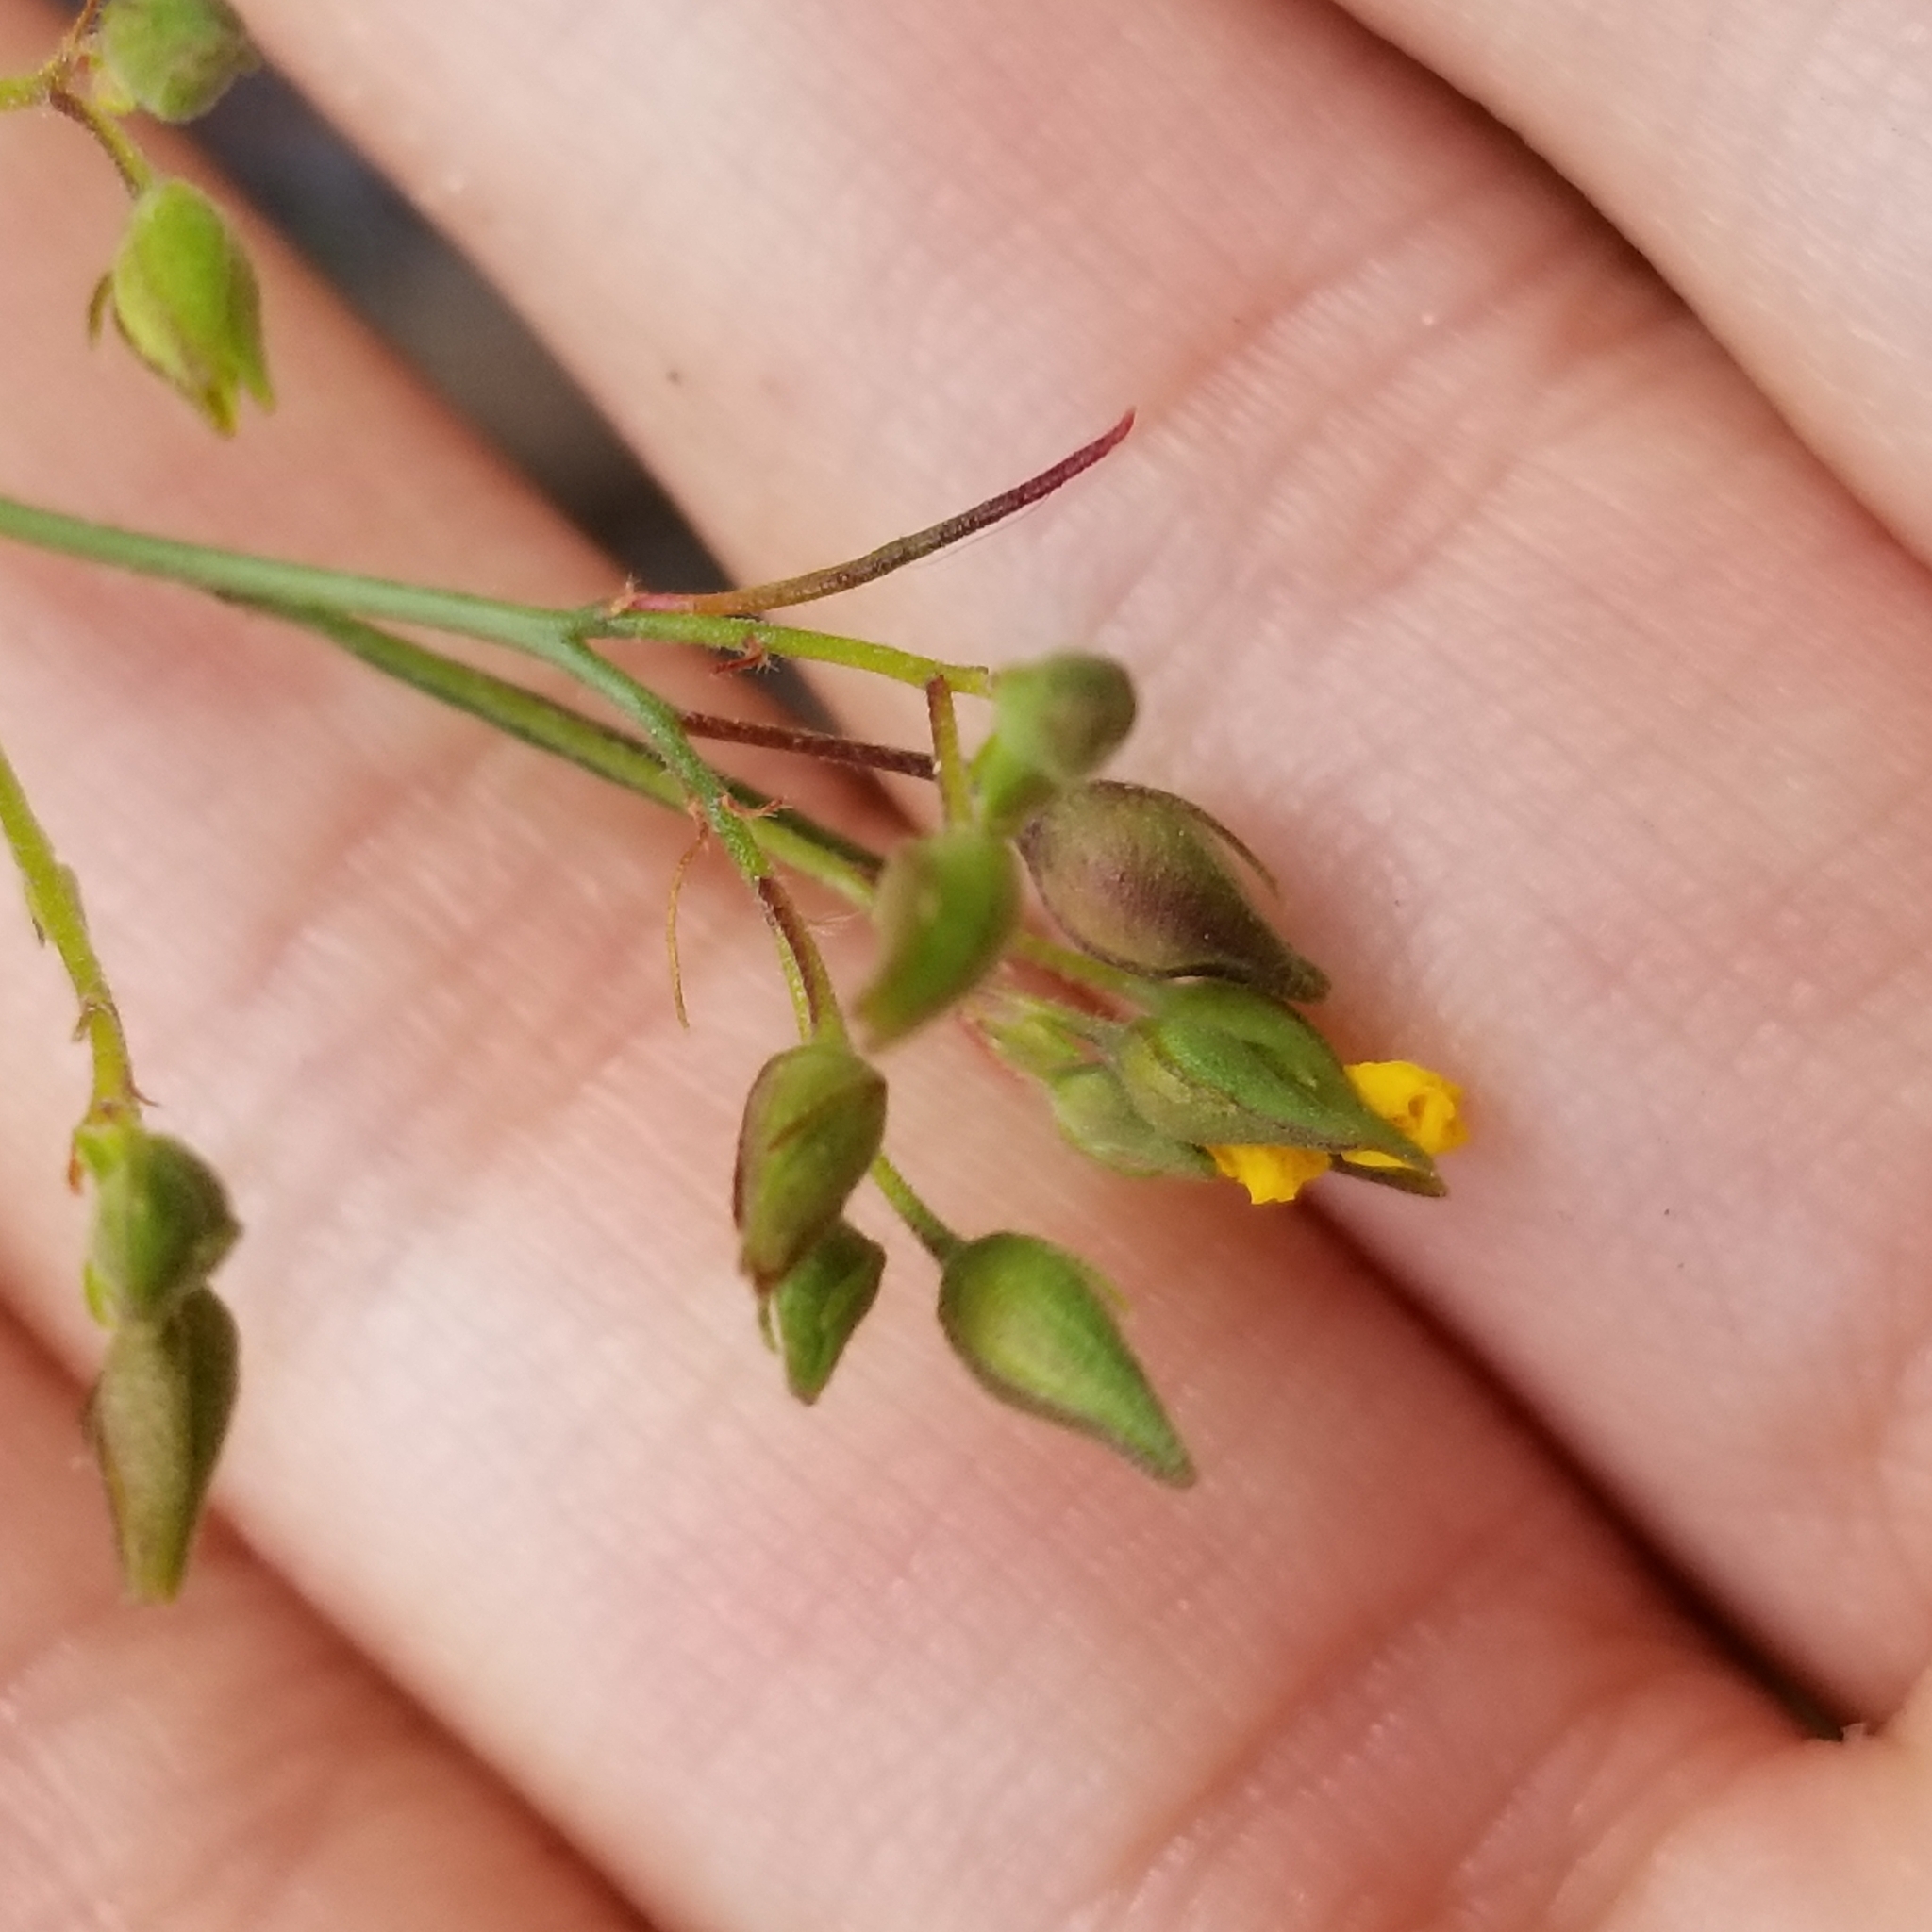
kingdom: Plantae
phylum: Tracheophyta
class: Magnoliopsida
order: Malvales
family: Cistaceae
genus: Crocanthemum
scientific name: Crocanthemum scoparium
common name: Broom-rose
